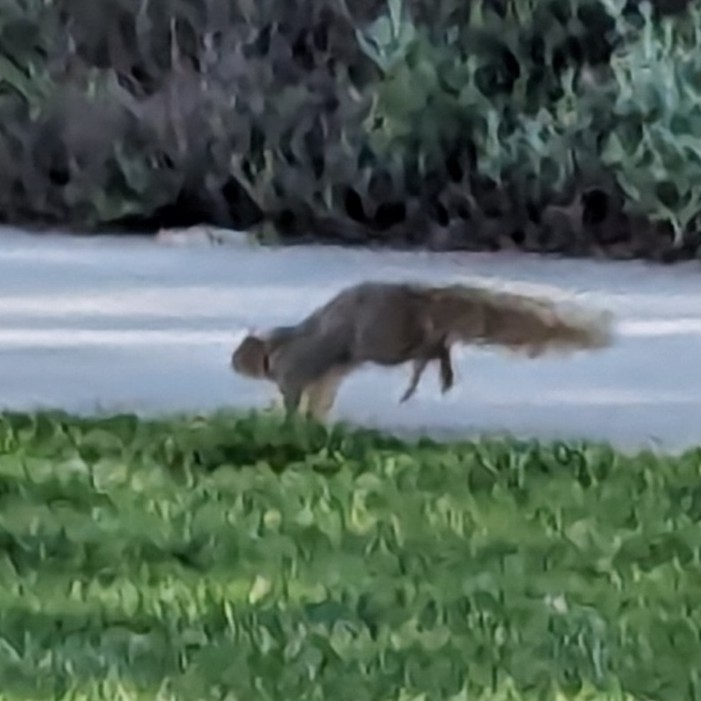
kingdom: Animalia
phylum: Chordata
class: Mammalia
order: Rodentia
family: Sciuridae
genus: Sciurus
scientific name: Sciurus niger
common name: Fox squirrel
